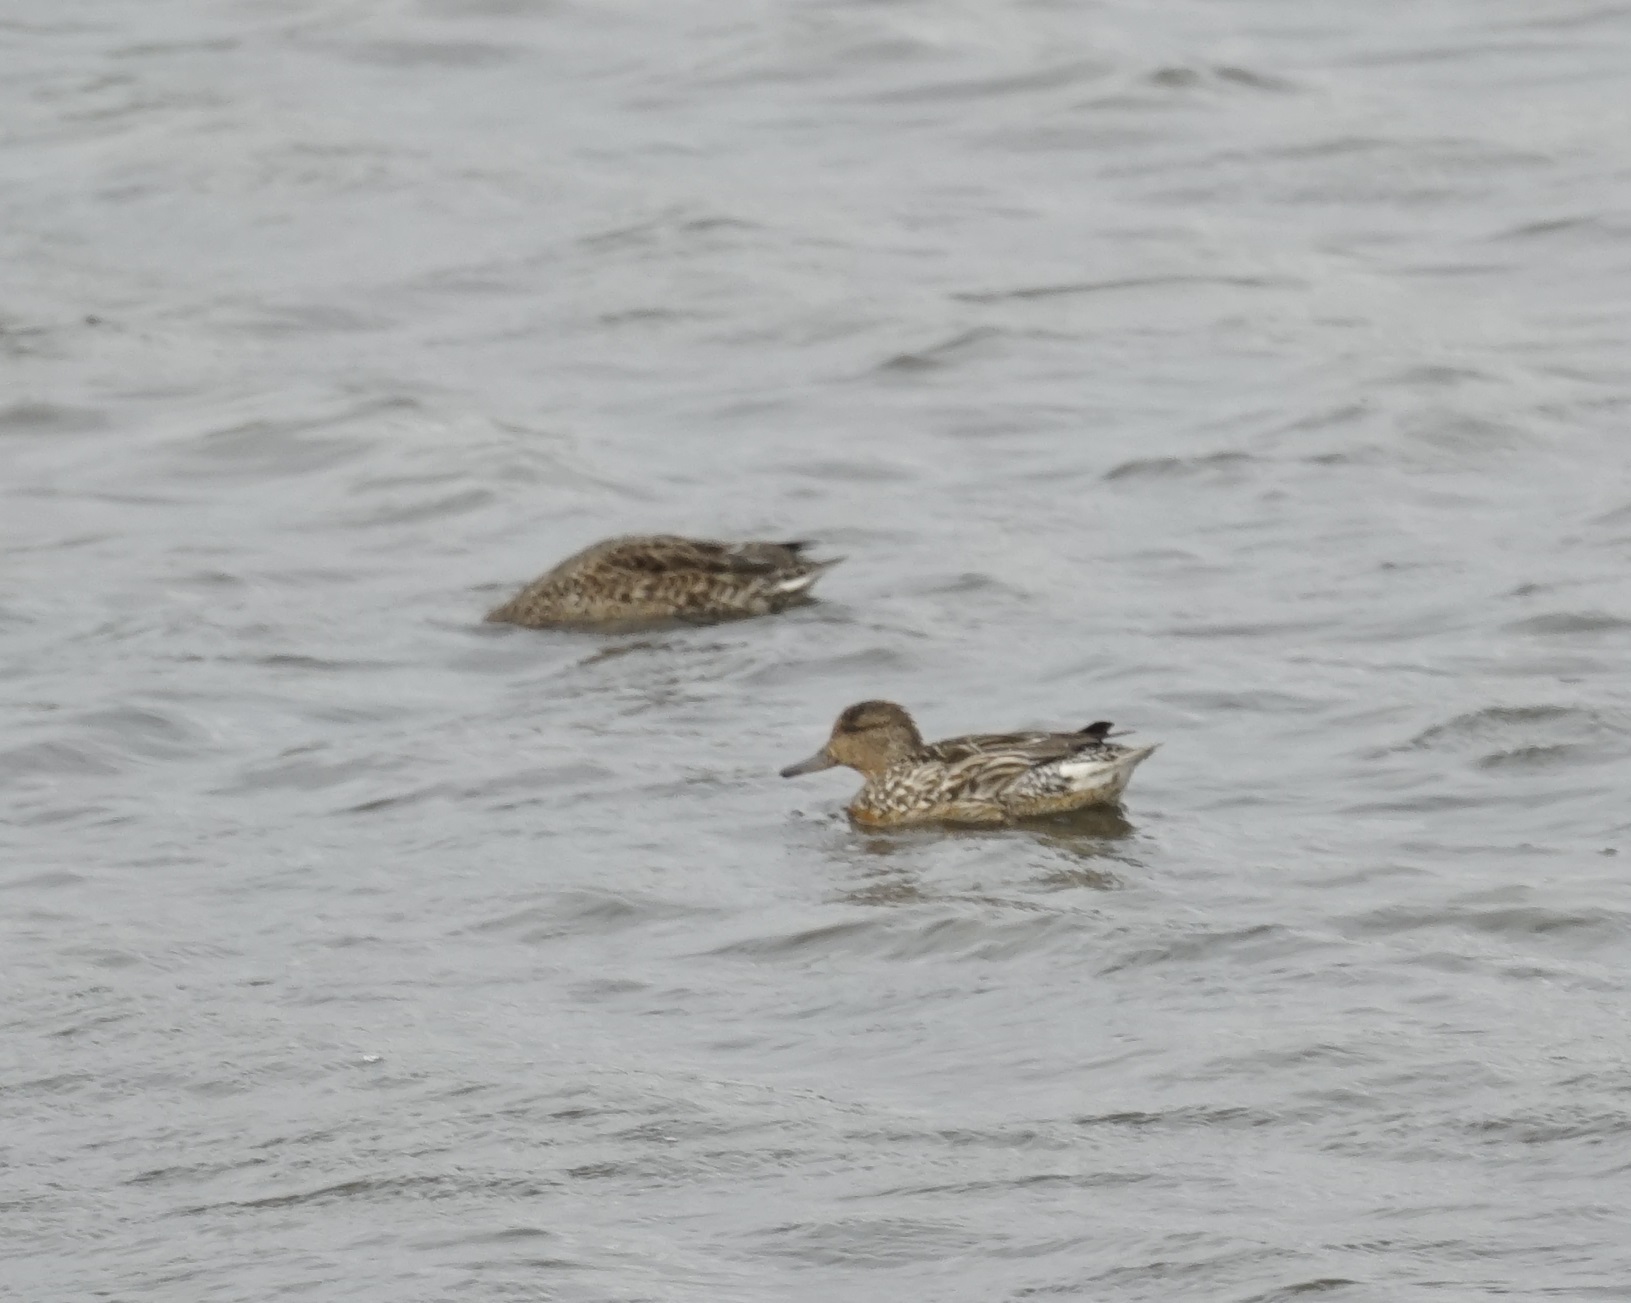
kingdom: Animalia
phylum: Chordata
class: Aves
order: Anseriformes
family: Anatidae
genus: Anas
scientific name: Anas crecca
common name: Eurasian teal
